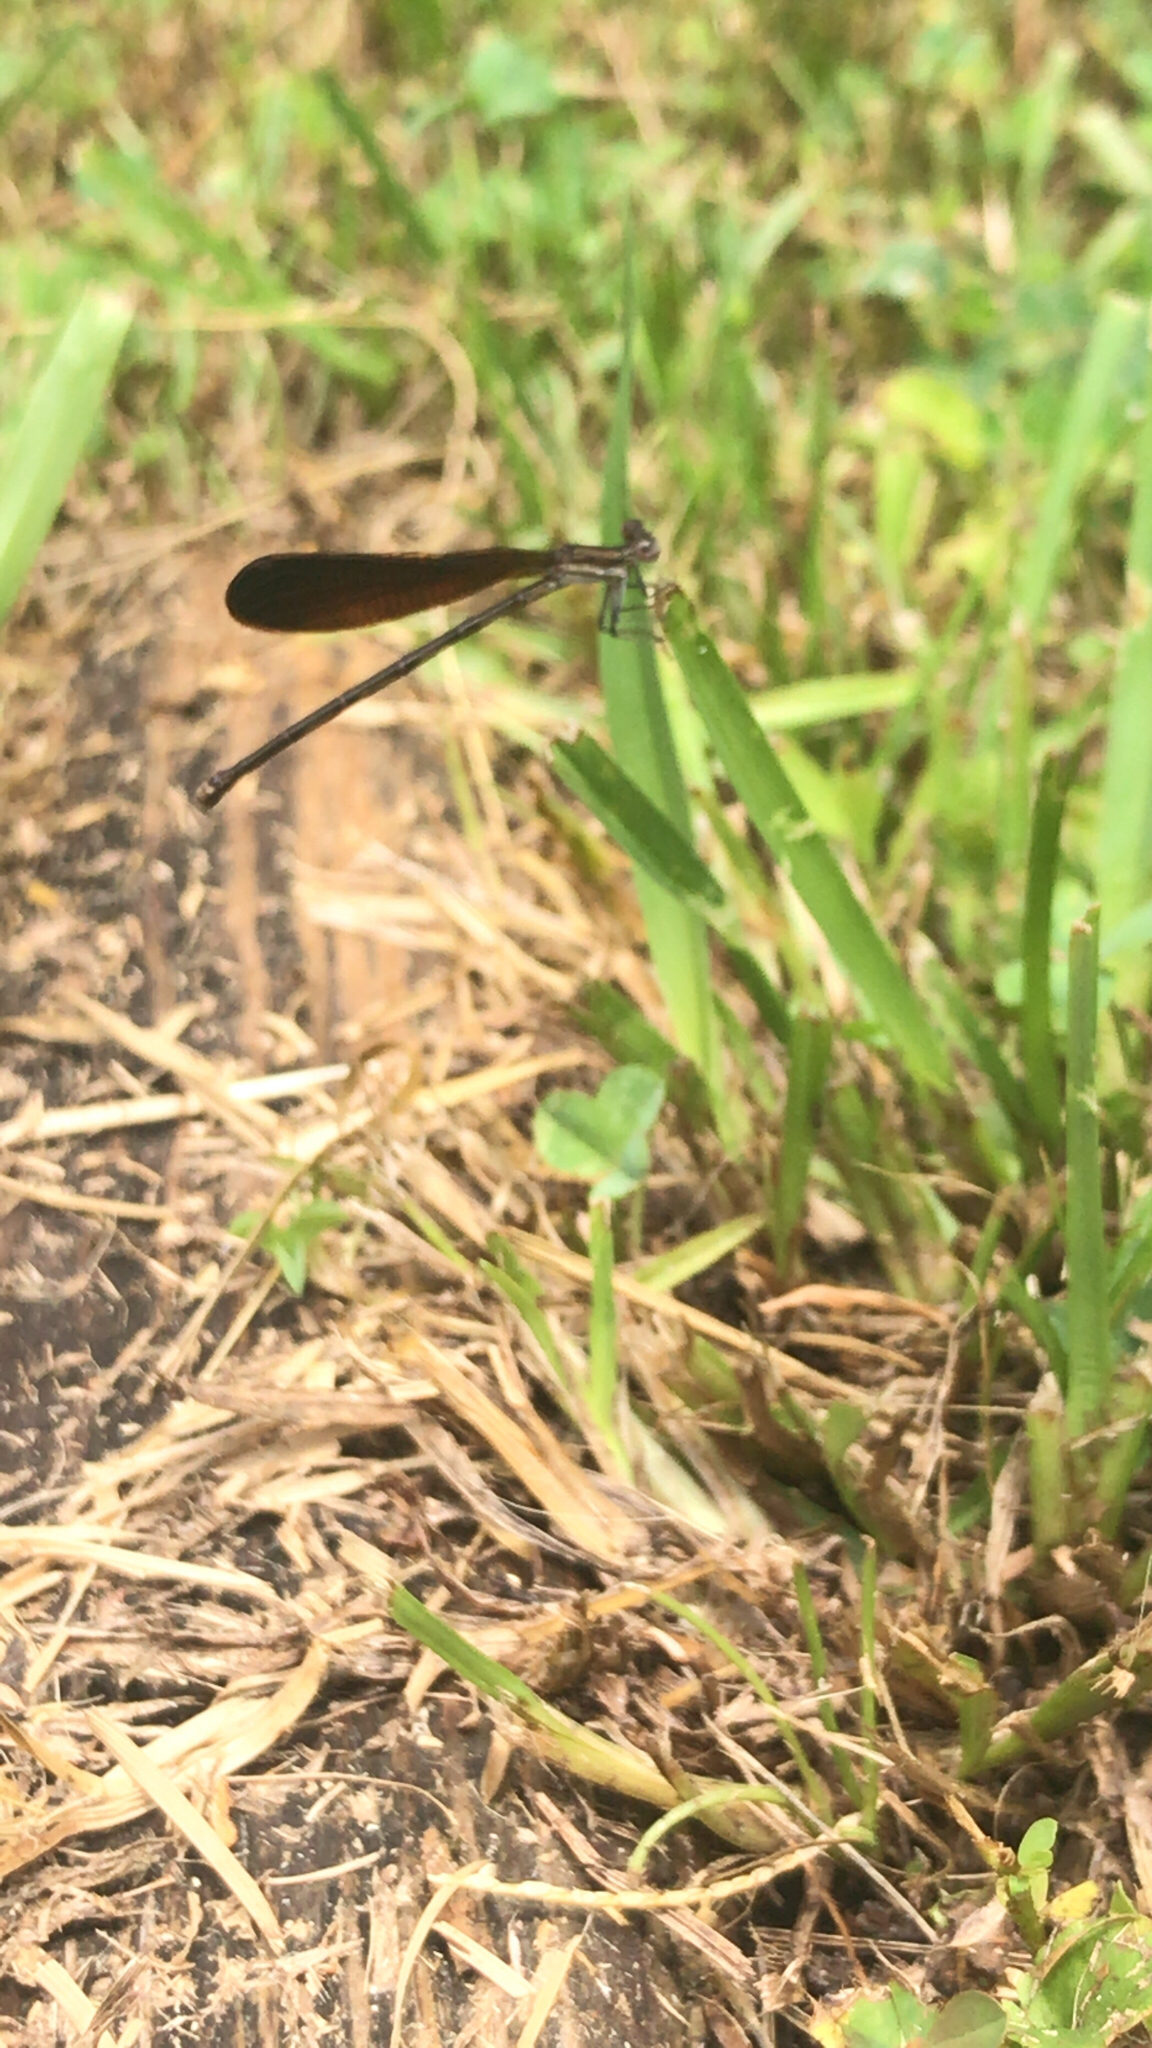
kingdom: Animalia
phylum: Arthropoda
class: Insecta
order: Odonata
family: Coenagrionidae
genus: Argia
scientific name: Argia fumipennis
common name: Variable dancer
